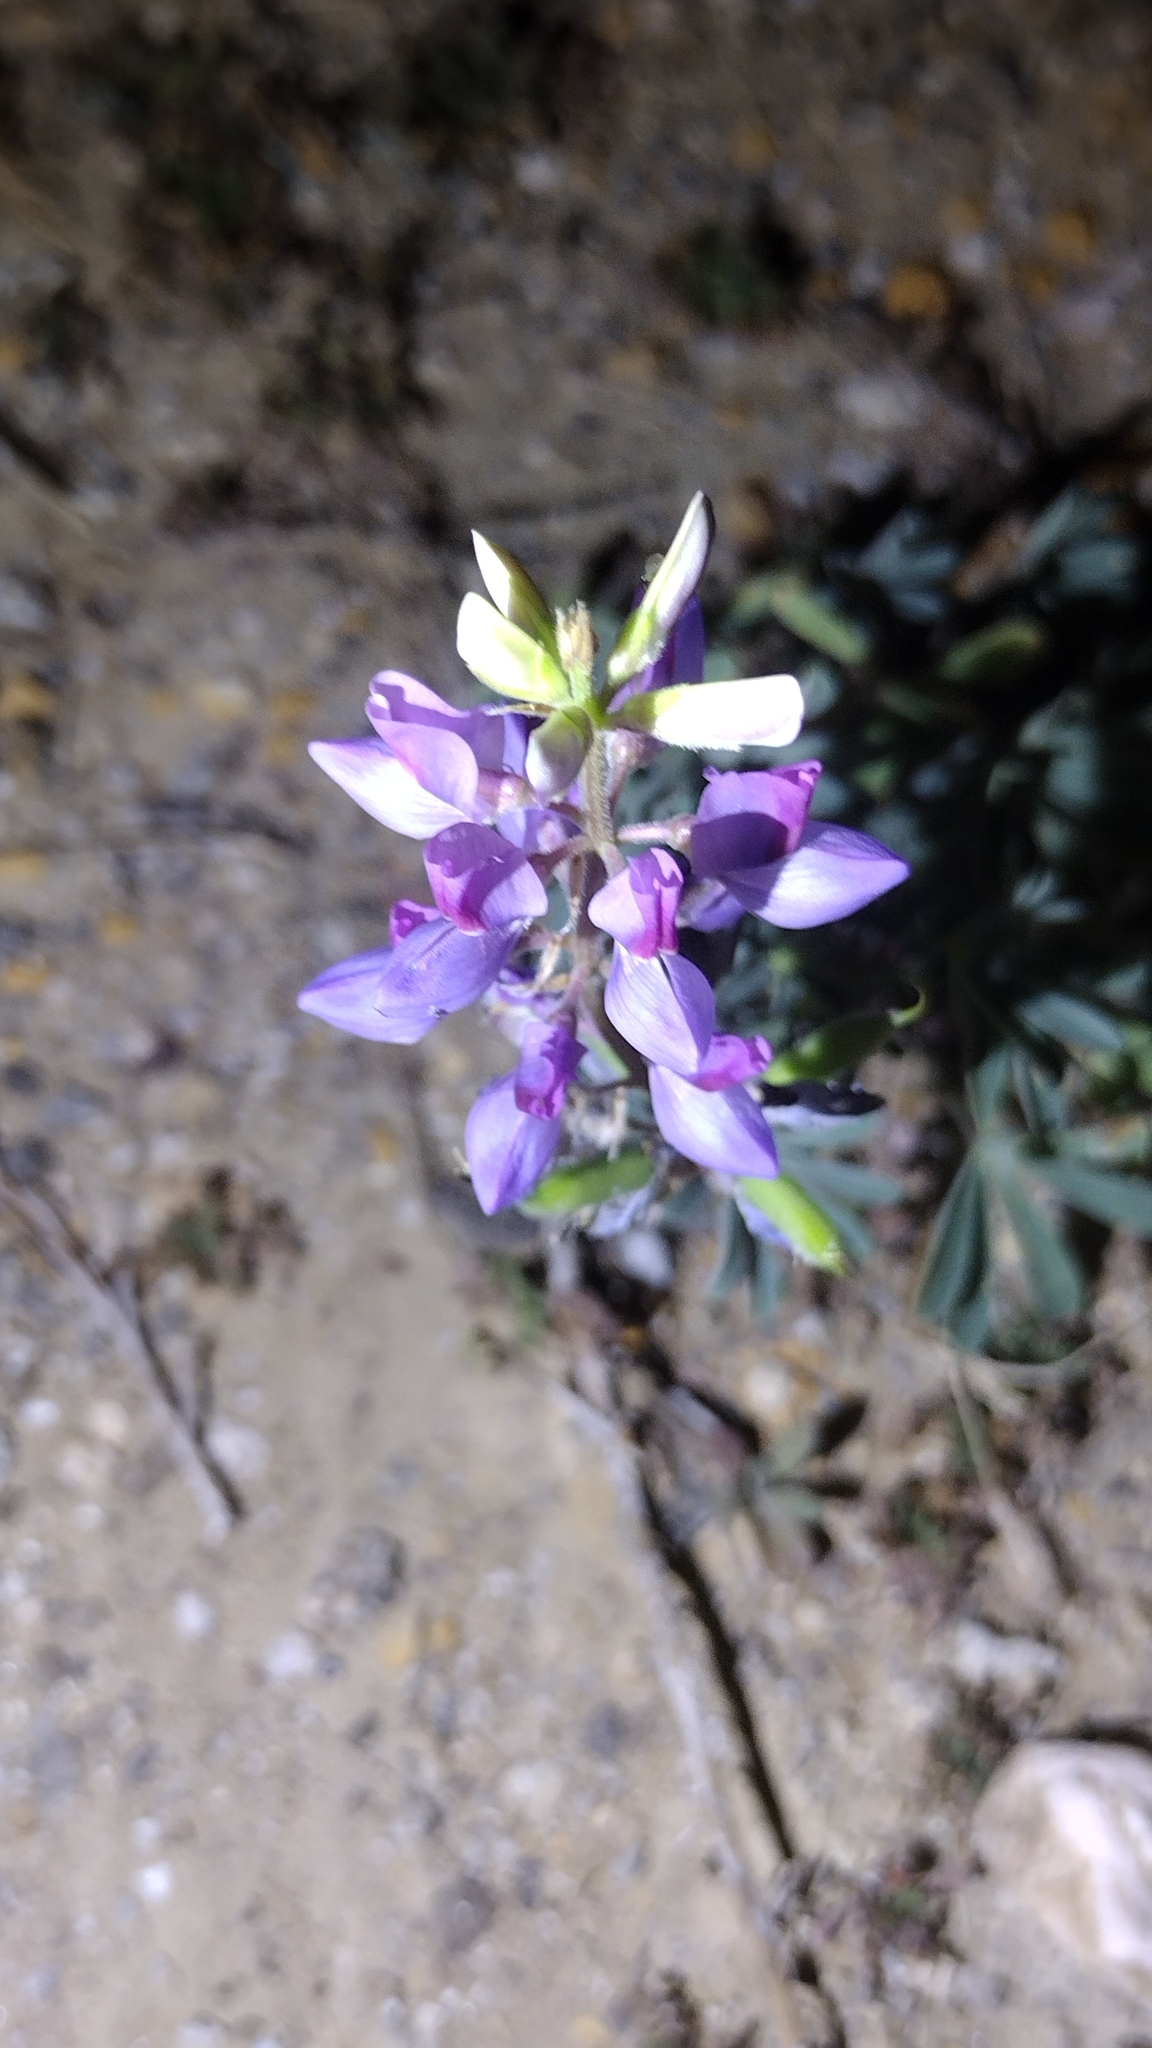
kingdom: Plantae
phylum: Tracheophyta
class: Magnoliopsida
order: Fabales
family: Fabaceae
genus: Lupinus
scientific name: Lupinus formosus
